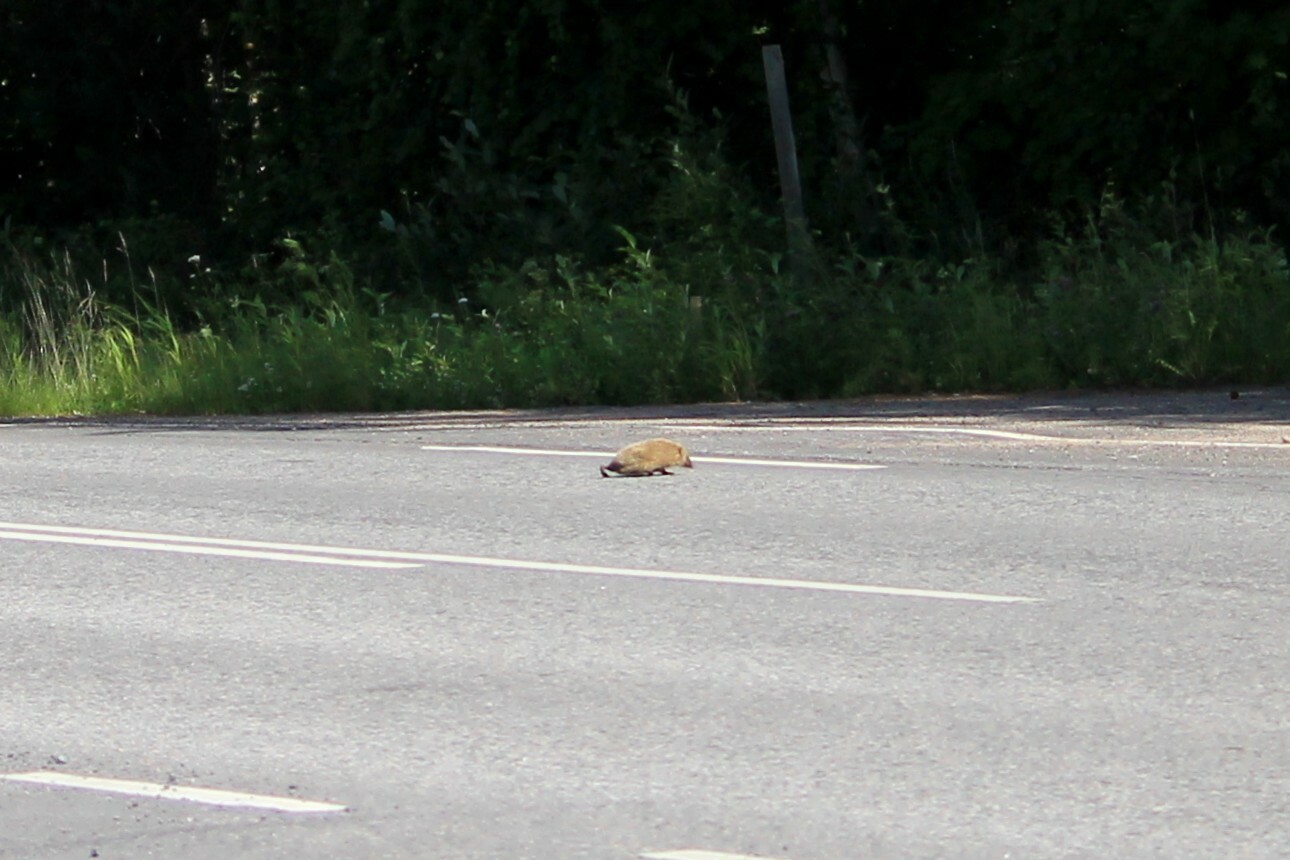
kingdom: Animalia
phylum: Chordata
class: Mammalia
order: Erinaceomorpha
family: Erinaceidae
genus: Erinaceus
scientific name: Erinaceus europaeus
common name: West european hedgehog
